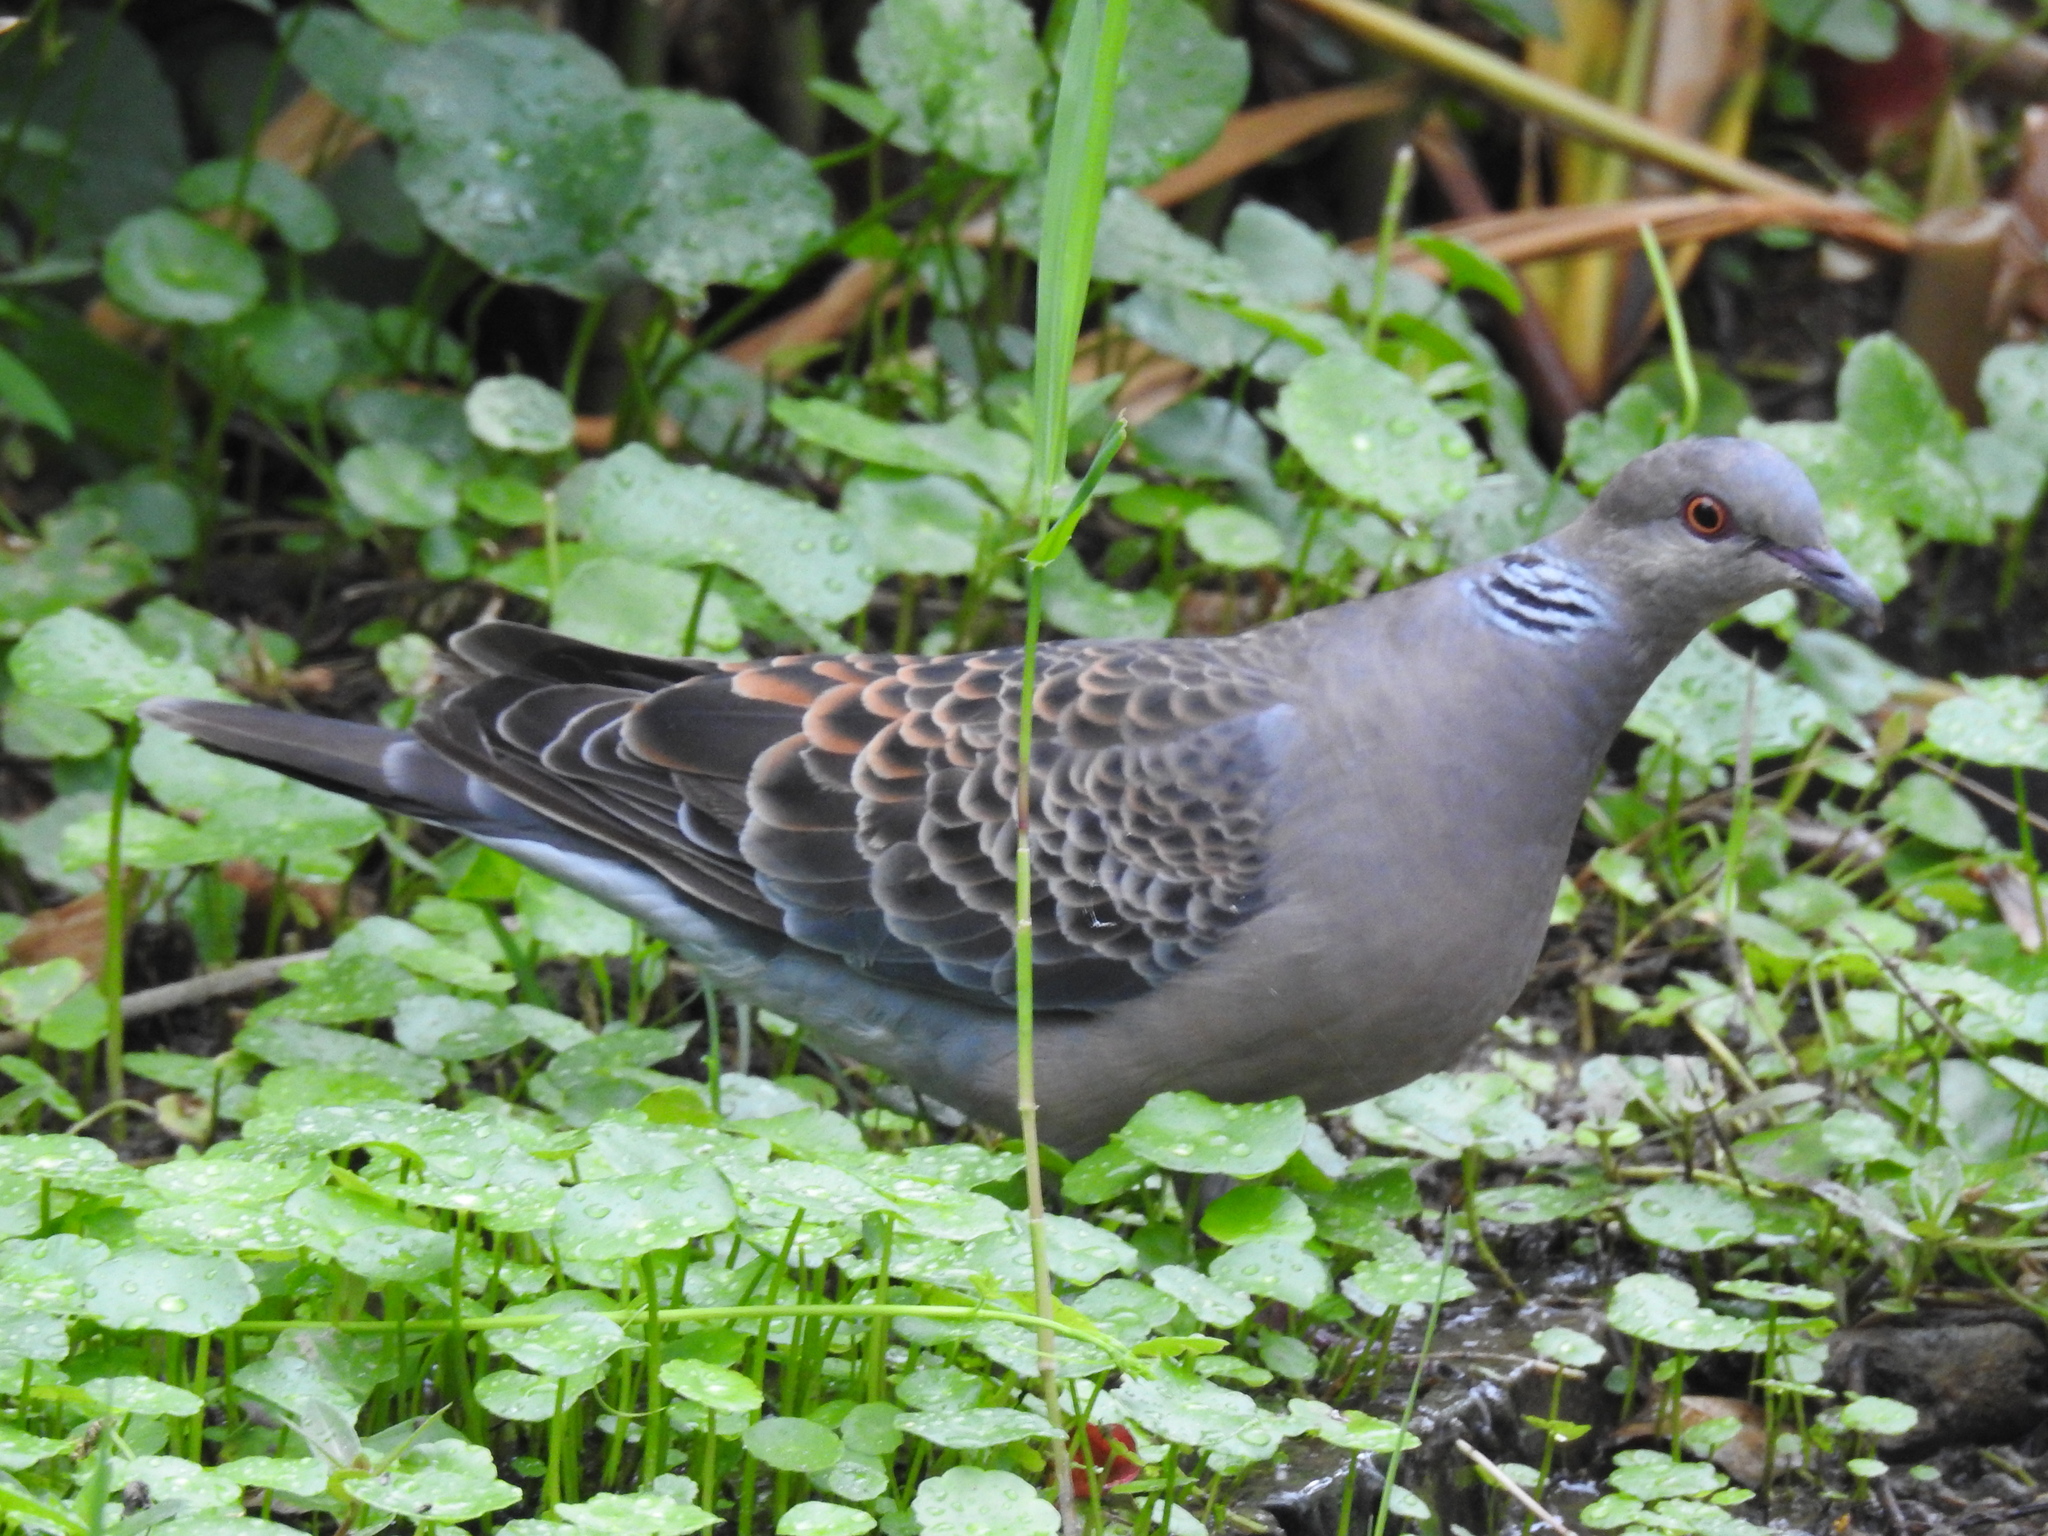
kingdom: Animalia
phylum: Chordata
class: Aves
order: Columbiformes
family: Columbidae
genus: Streptopelia
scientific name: Streptopelia orientalis
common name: Oriental turtle dove
